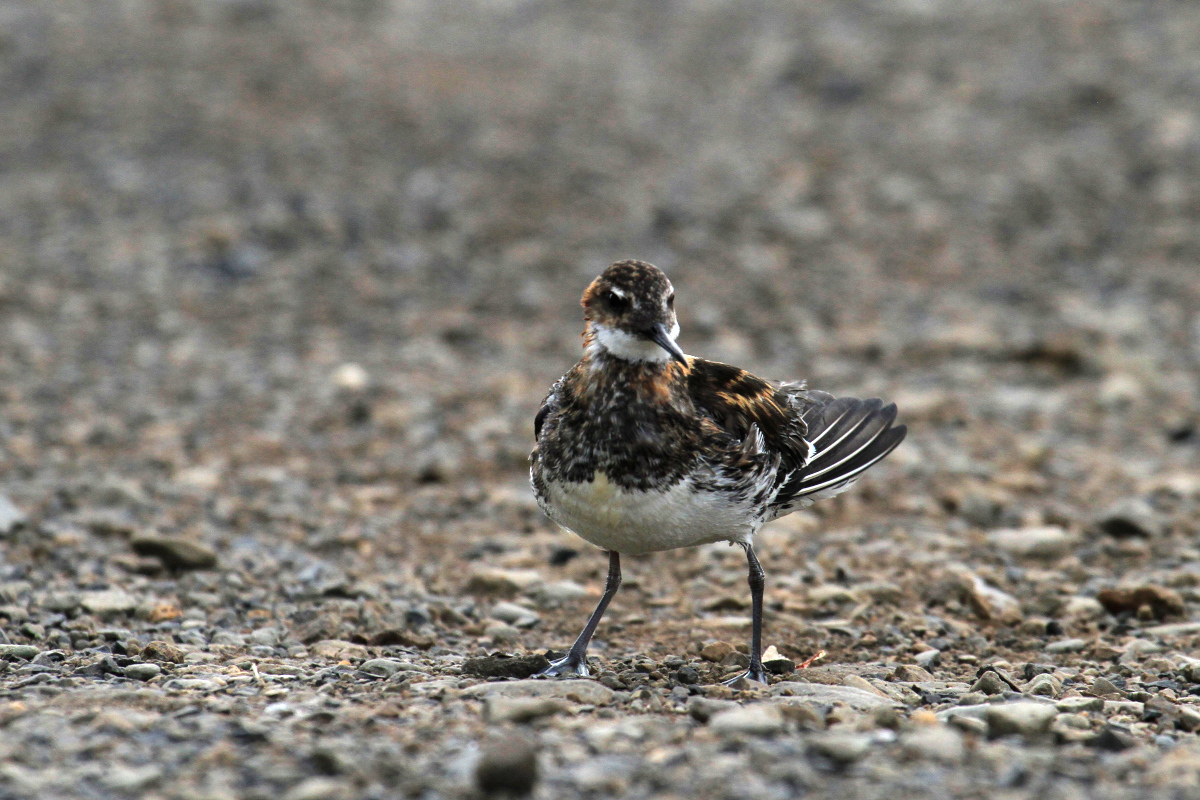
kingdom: Animalia
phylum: Chordata
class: Aves
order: Charadriiformes
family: Scolopacidae
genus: Phalaropus
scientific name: Phalaropus lobatus
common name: Red-necked phalarope
